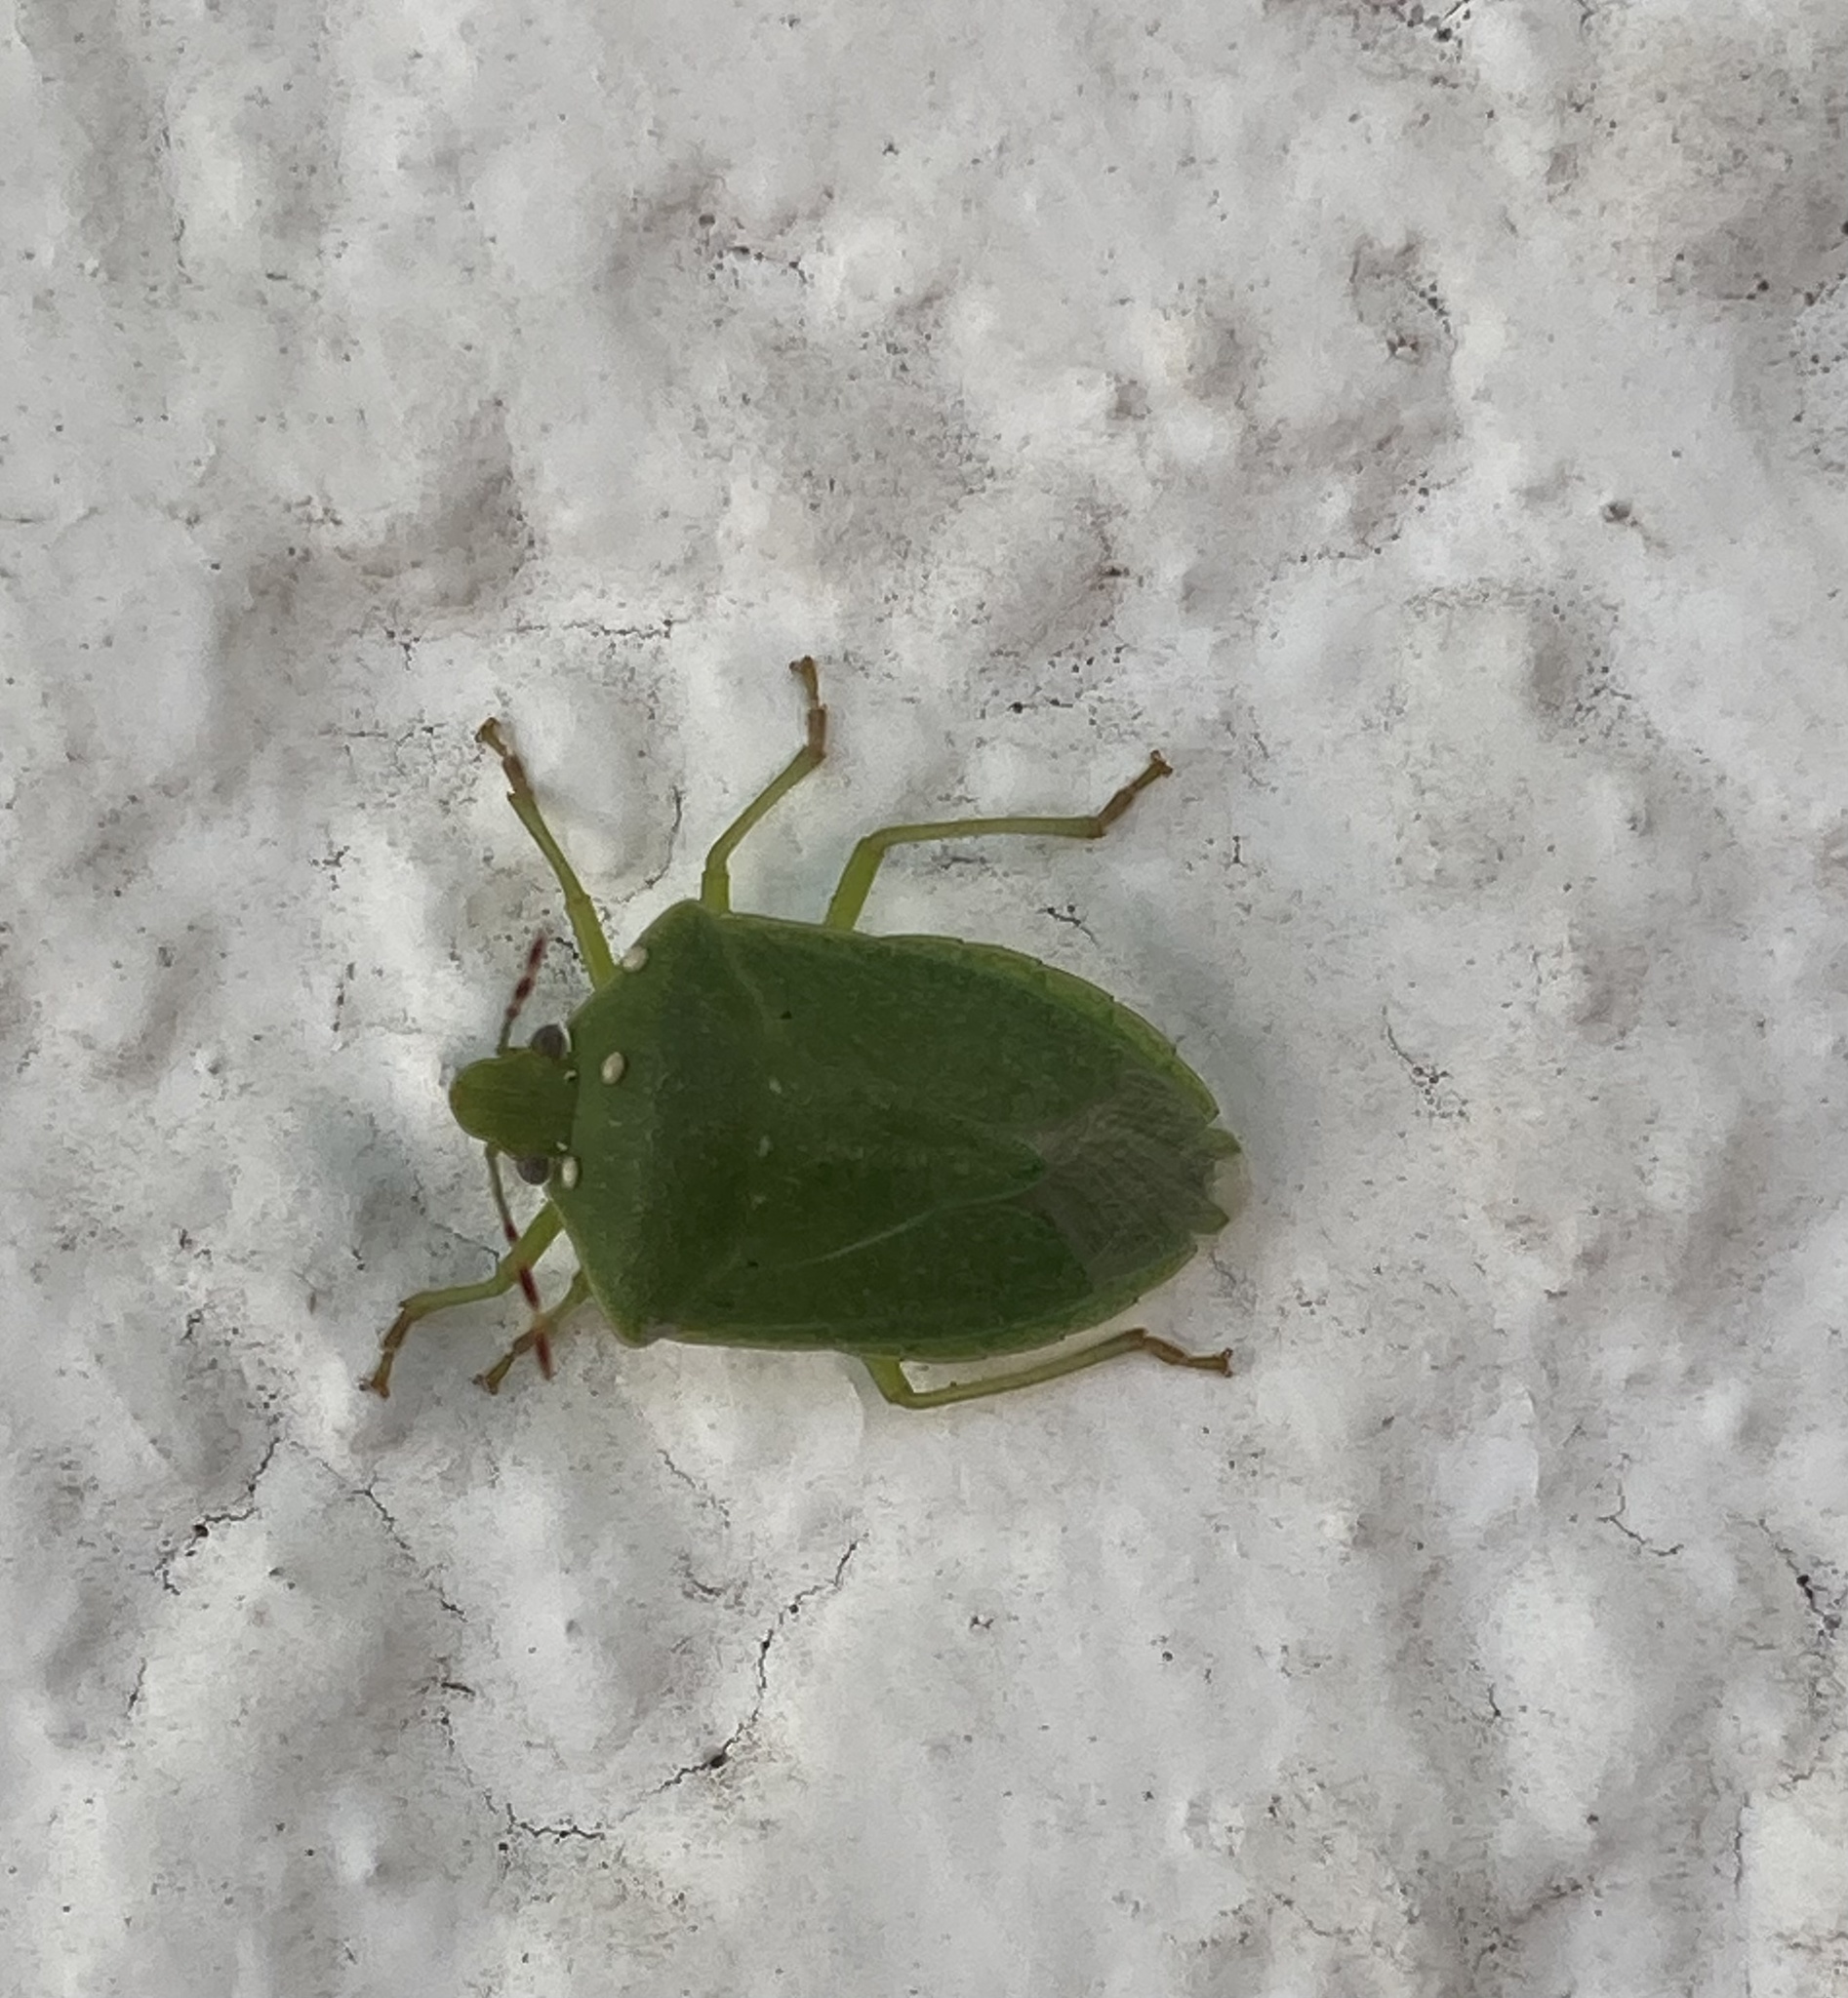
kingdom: Animalia
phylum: Arthropoda
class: Insecta
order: Hemiptera
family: Pentatomidae
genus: Nezara
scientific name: Nezara viridula
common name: Southern green stink bug
